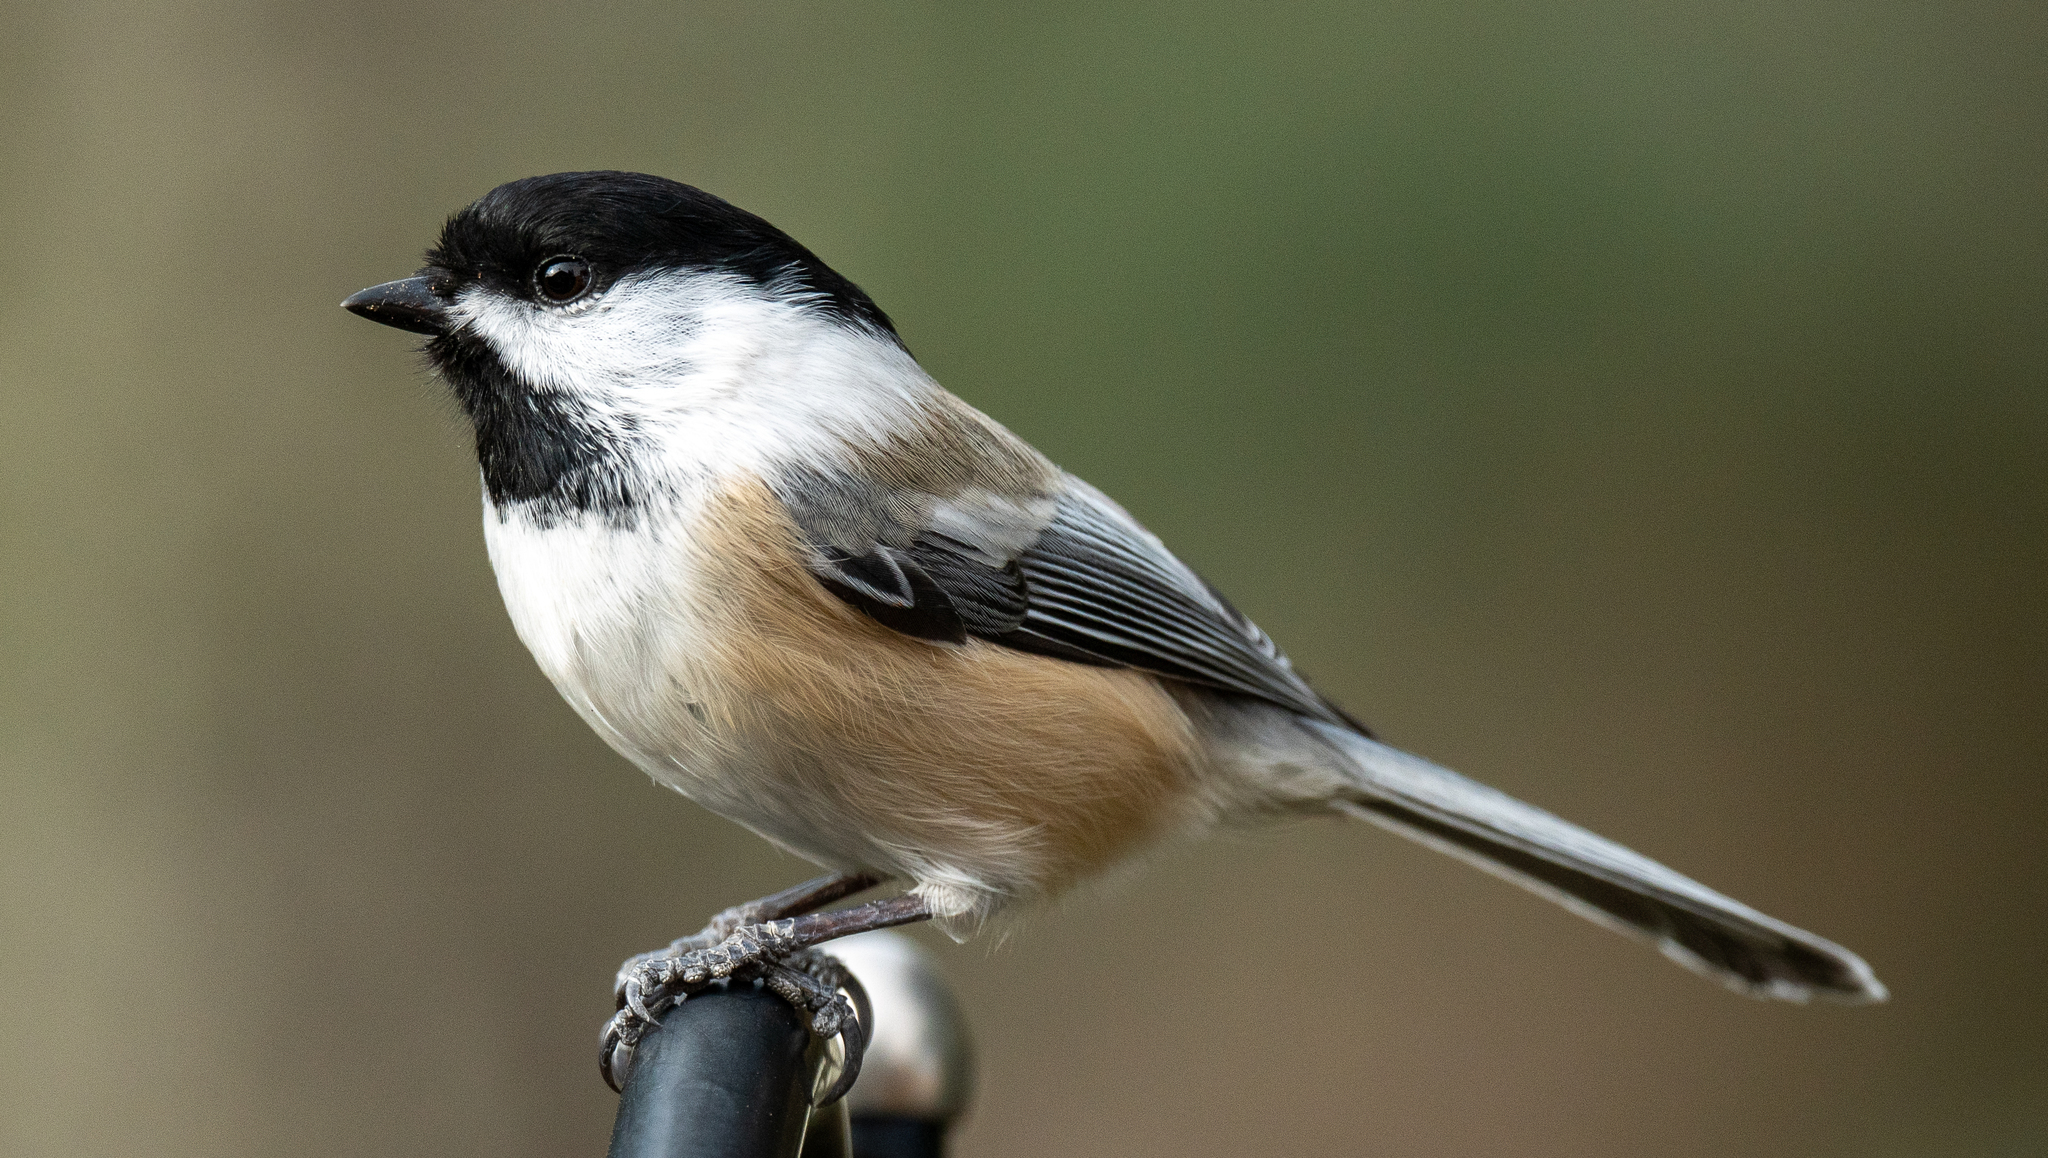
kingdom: Animalia
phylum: Chordata
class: Aves
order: Passeriformes
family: Paridae
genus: Poecile
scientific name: Poecile atricapillus
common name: Black-capped chickadee
